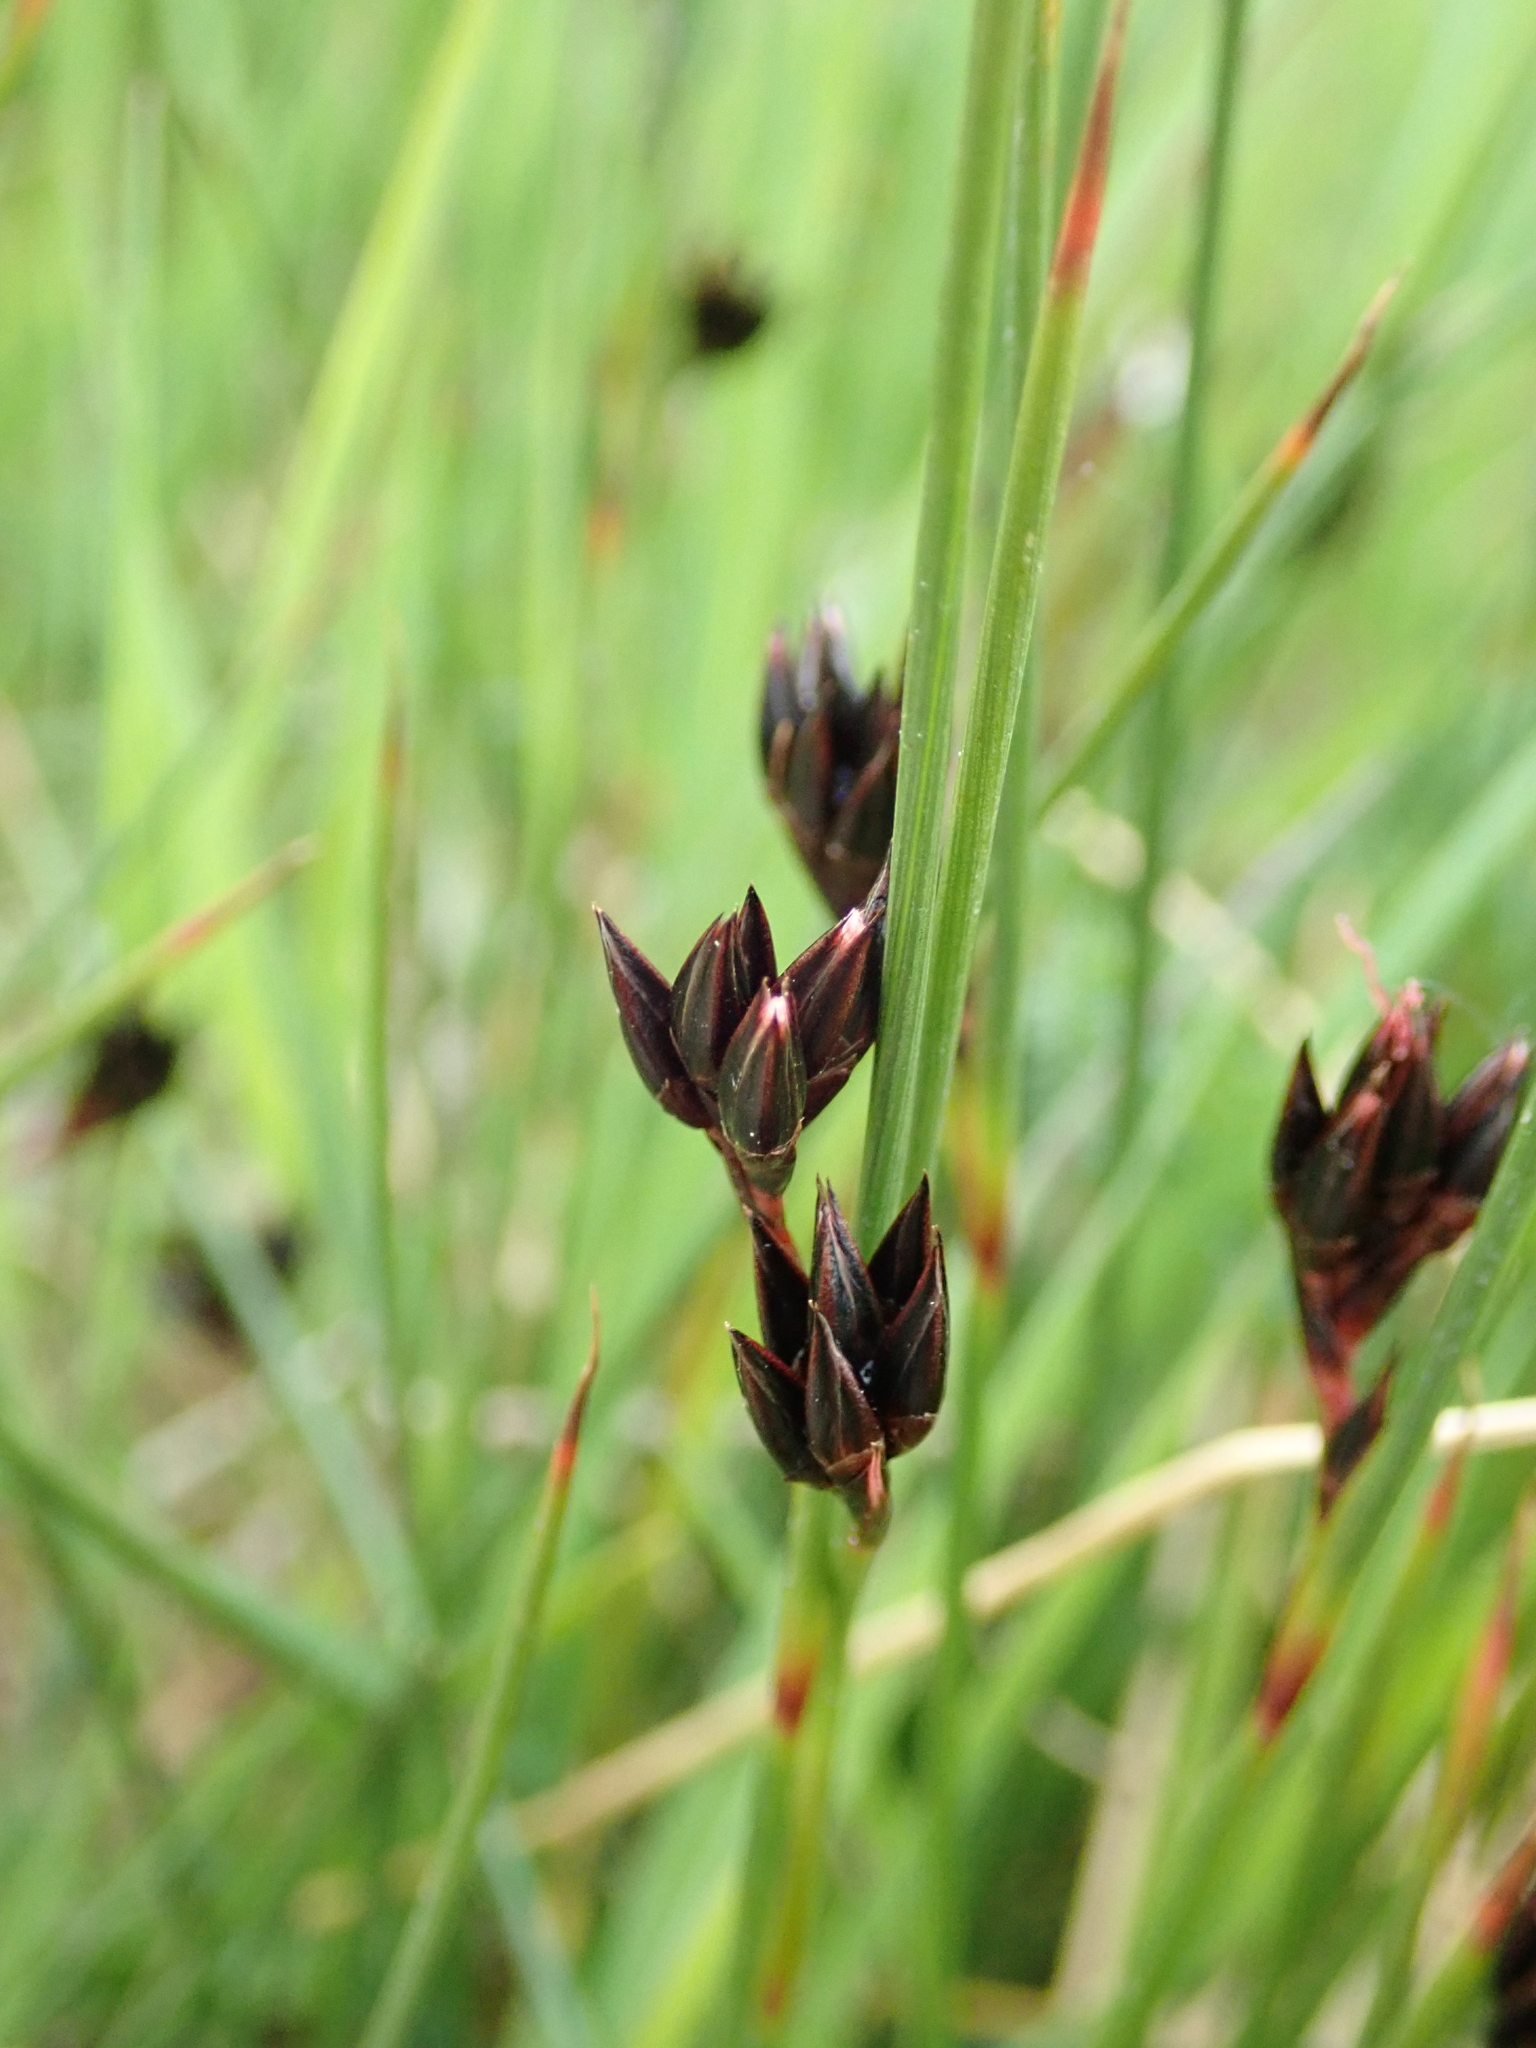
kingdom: Plantae
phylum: Tracheophyta
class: Liliopsida
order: Poales
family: Juncaceae
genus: Juncus
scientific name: Juncus jacquinii
